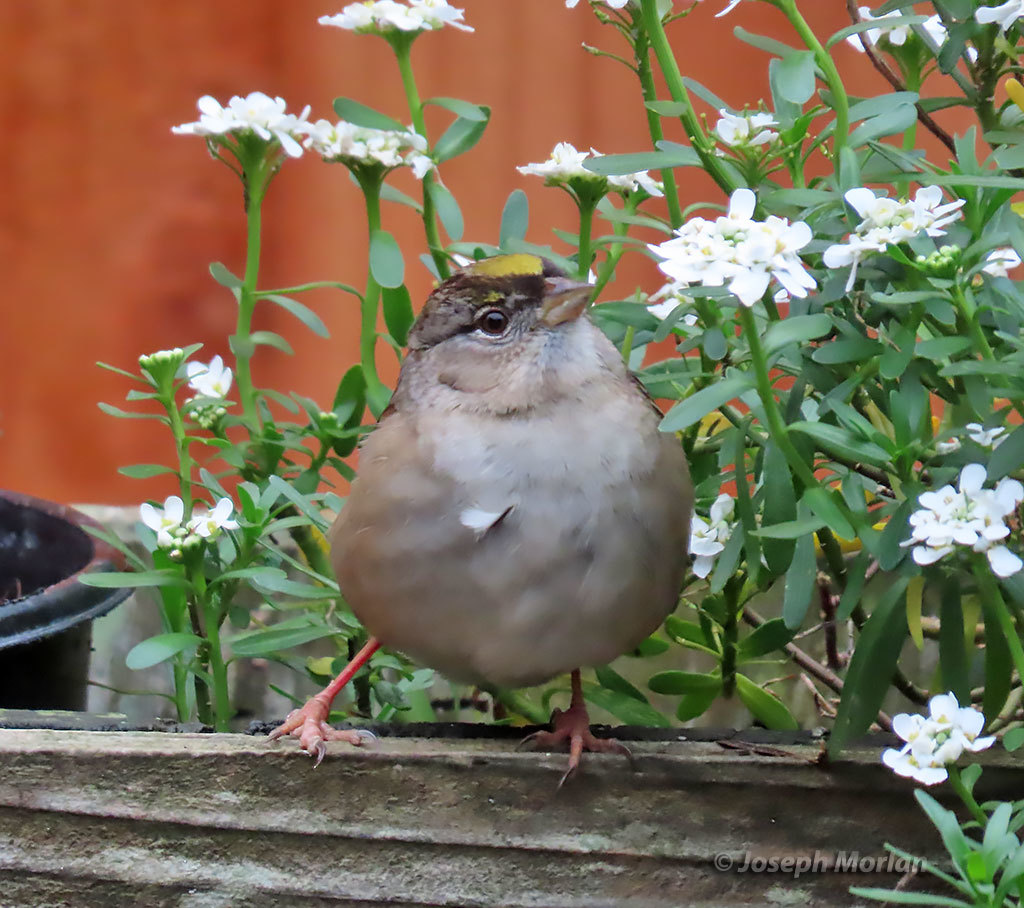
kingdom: Animalia
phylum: Chordata
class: Aves
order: Passeriformes
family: Passerellidae
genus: Zonotrichia
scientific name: Zonotrichia atricapilla
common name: Golden-crowned sparrow
